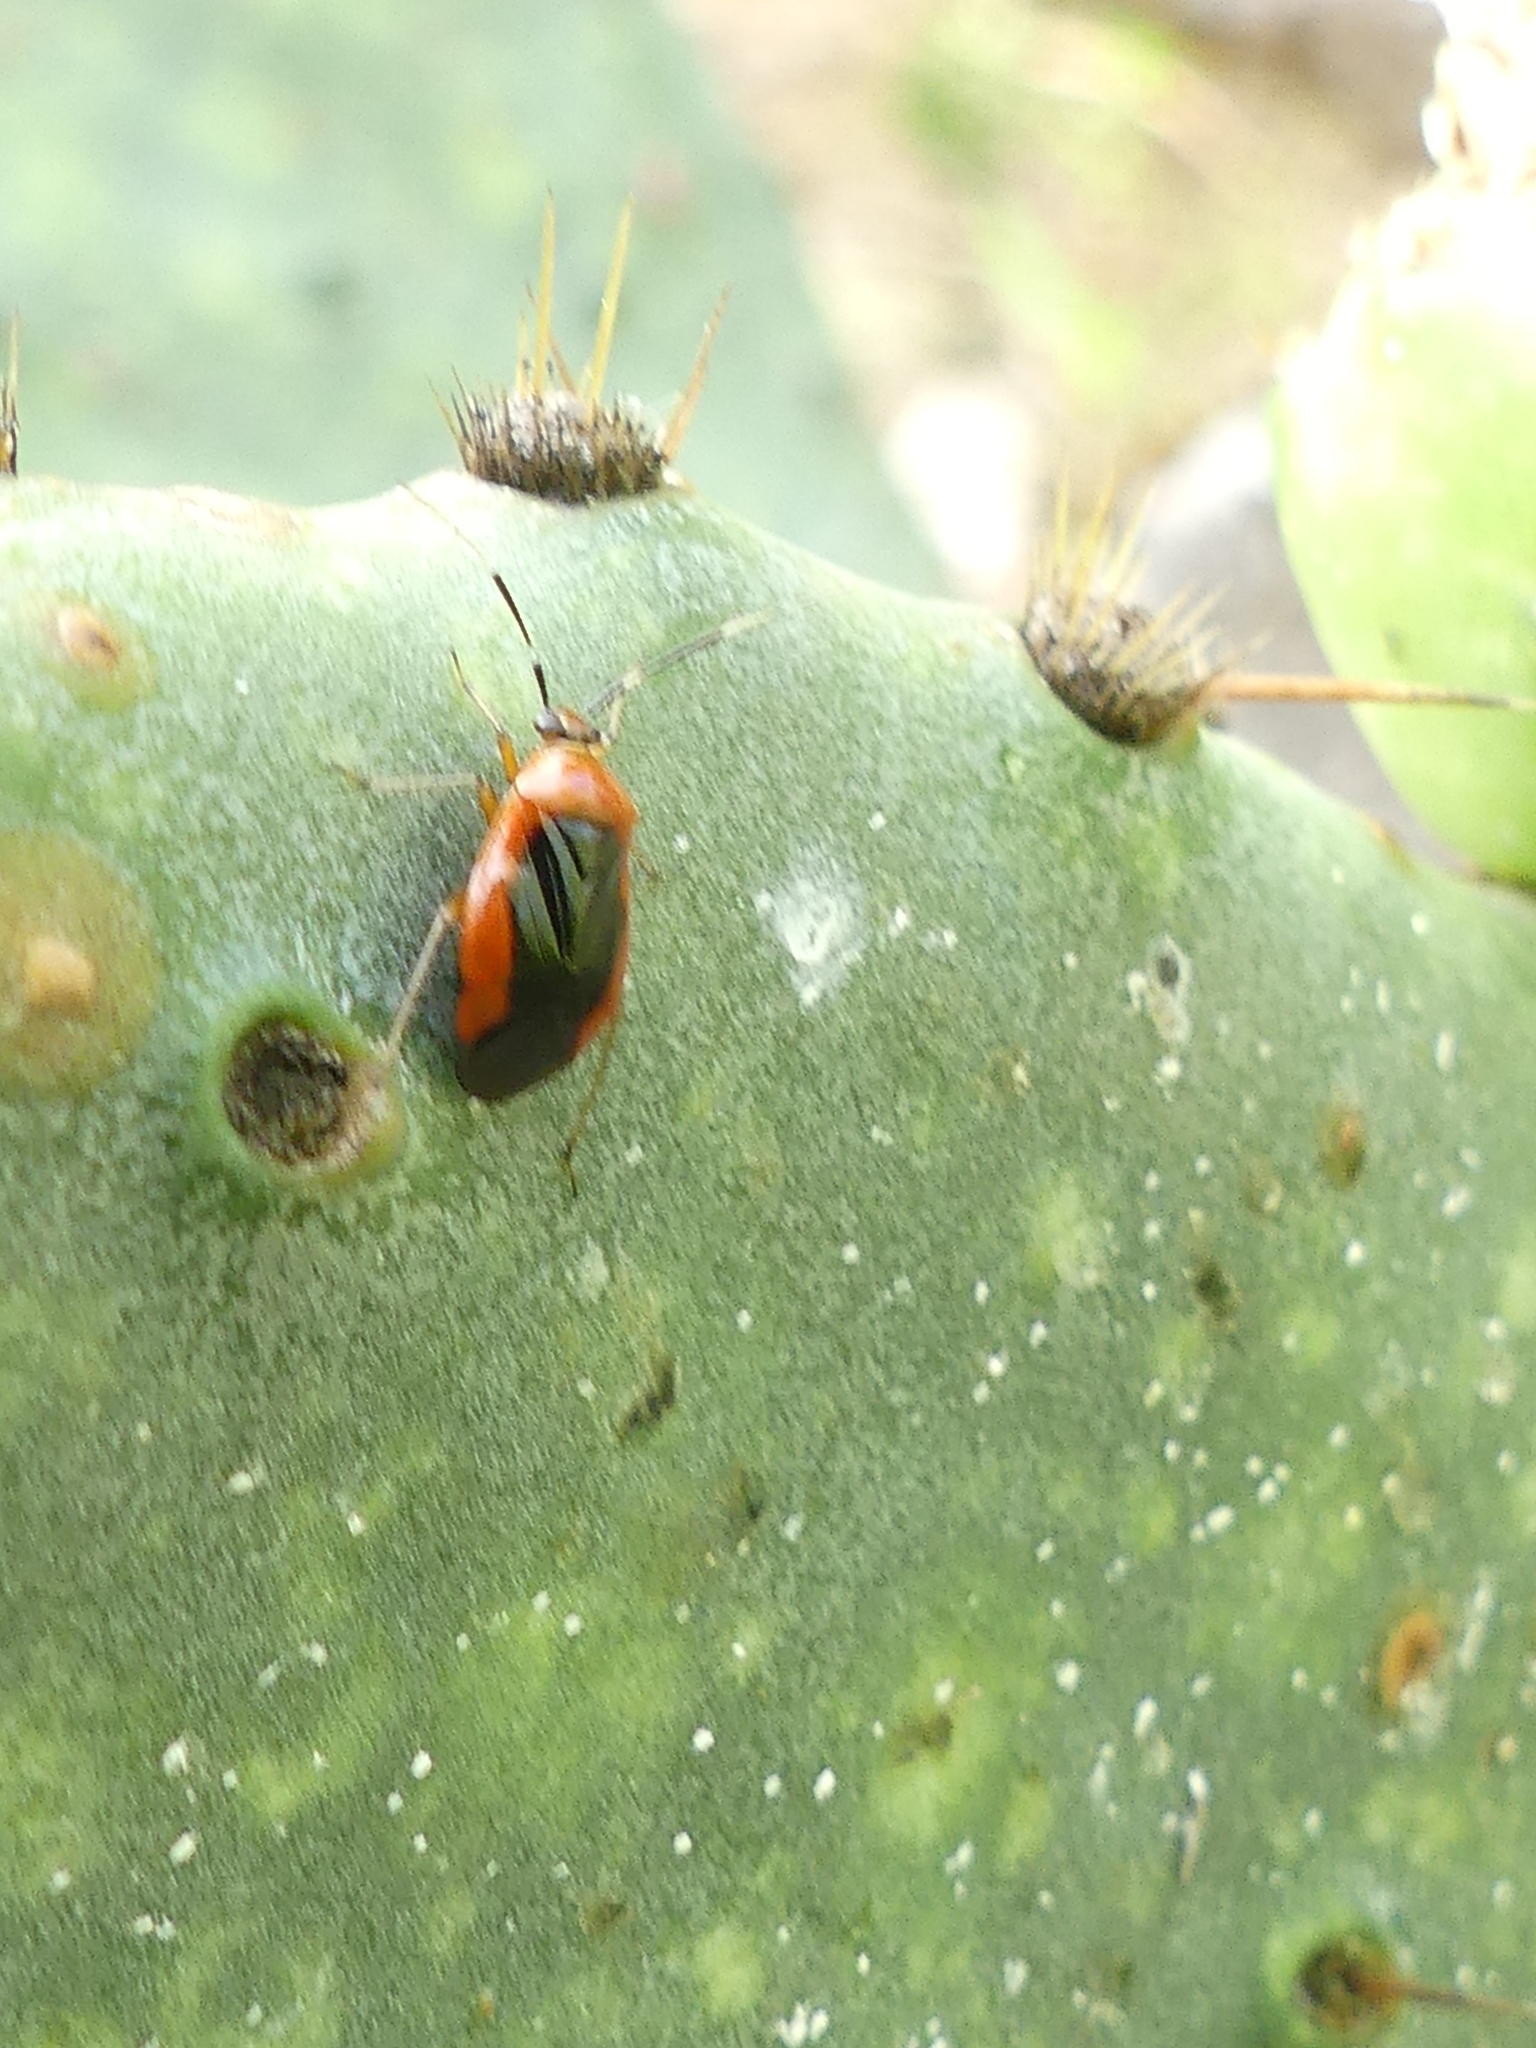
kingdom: Animalia
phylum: Arthropoda
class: Insecta
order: Hemiptera
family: Miridae
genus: Metriorrhynchomiris
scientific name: Metriorrhynchomiris dislocatus
